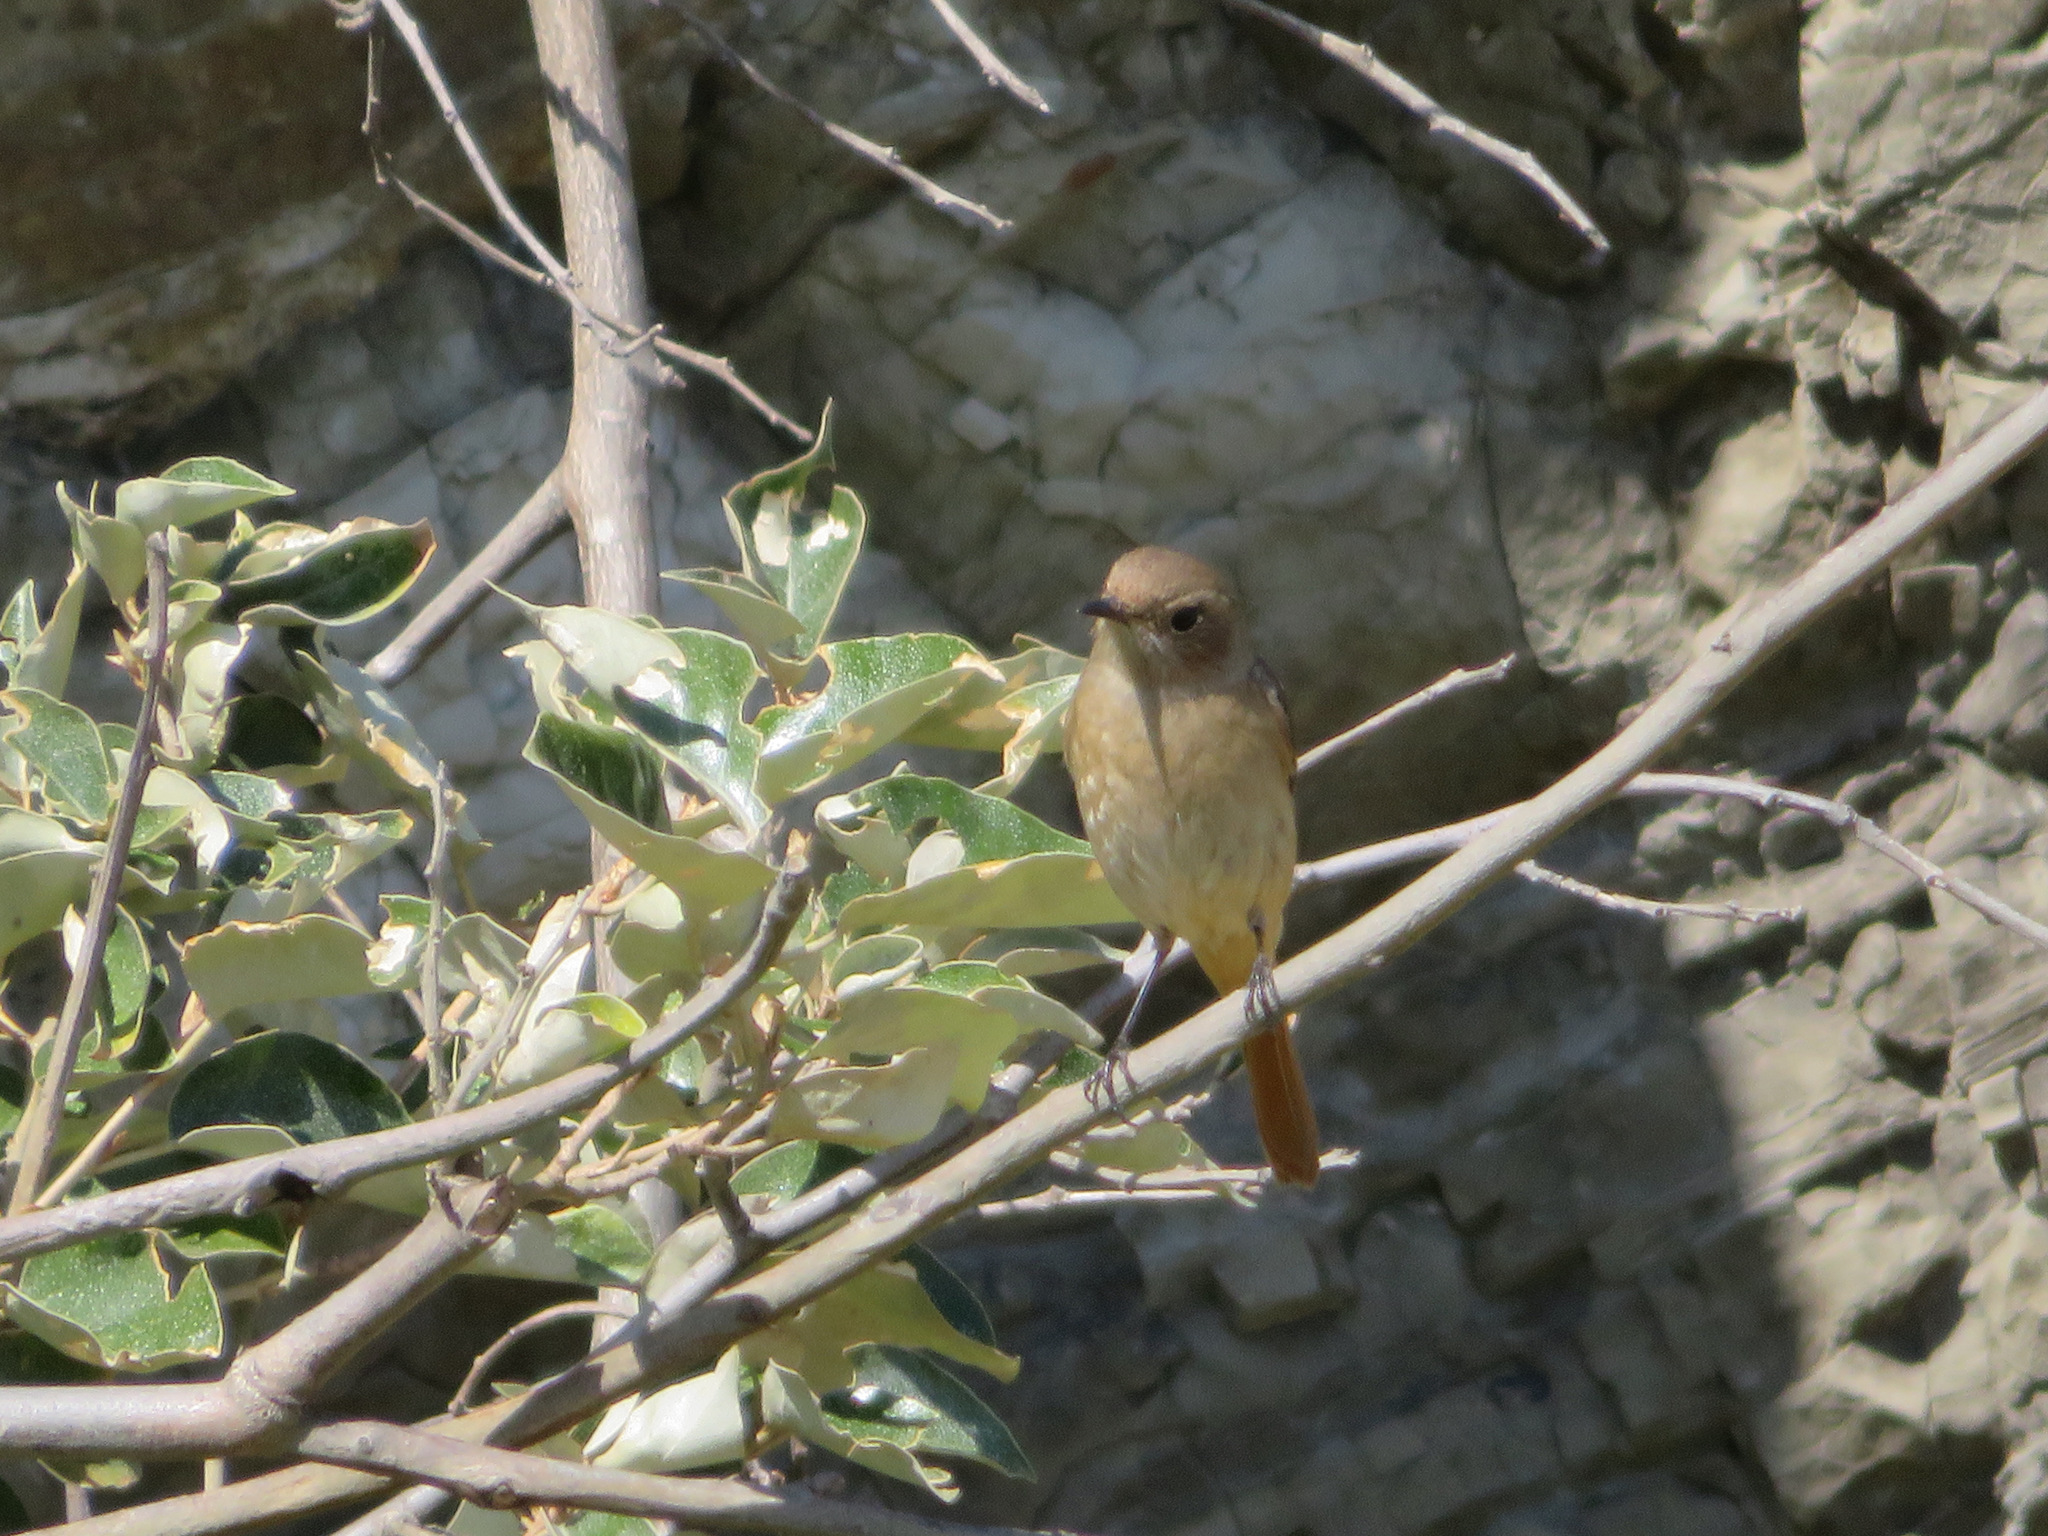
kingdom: Animalia
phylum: Chordata
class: Aves
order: Passeriformes
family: Muscicapidae
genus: Phoenicurus
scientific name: Phoenicurus auroreus
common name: Daurian redstart
